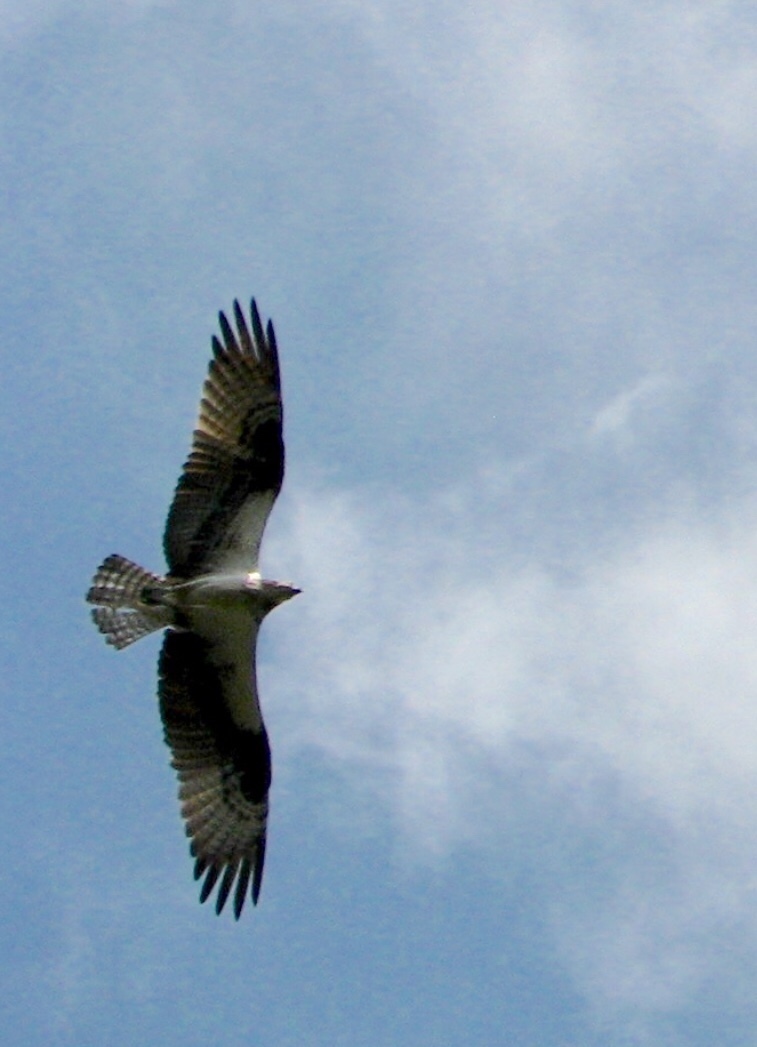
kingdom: Animalia
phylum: Chordata
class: Aves
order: Accipitriformes
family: Pandionidae
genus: Pandion
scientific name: Pandion haliaetus
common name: Osprey
